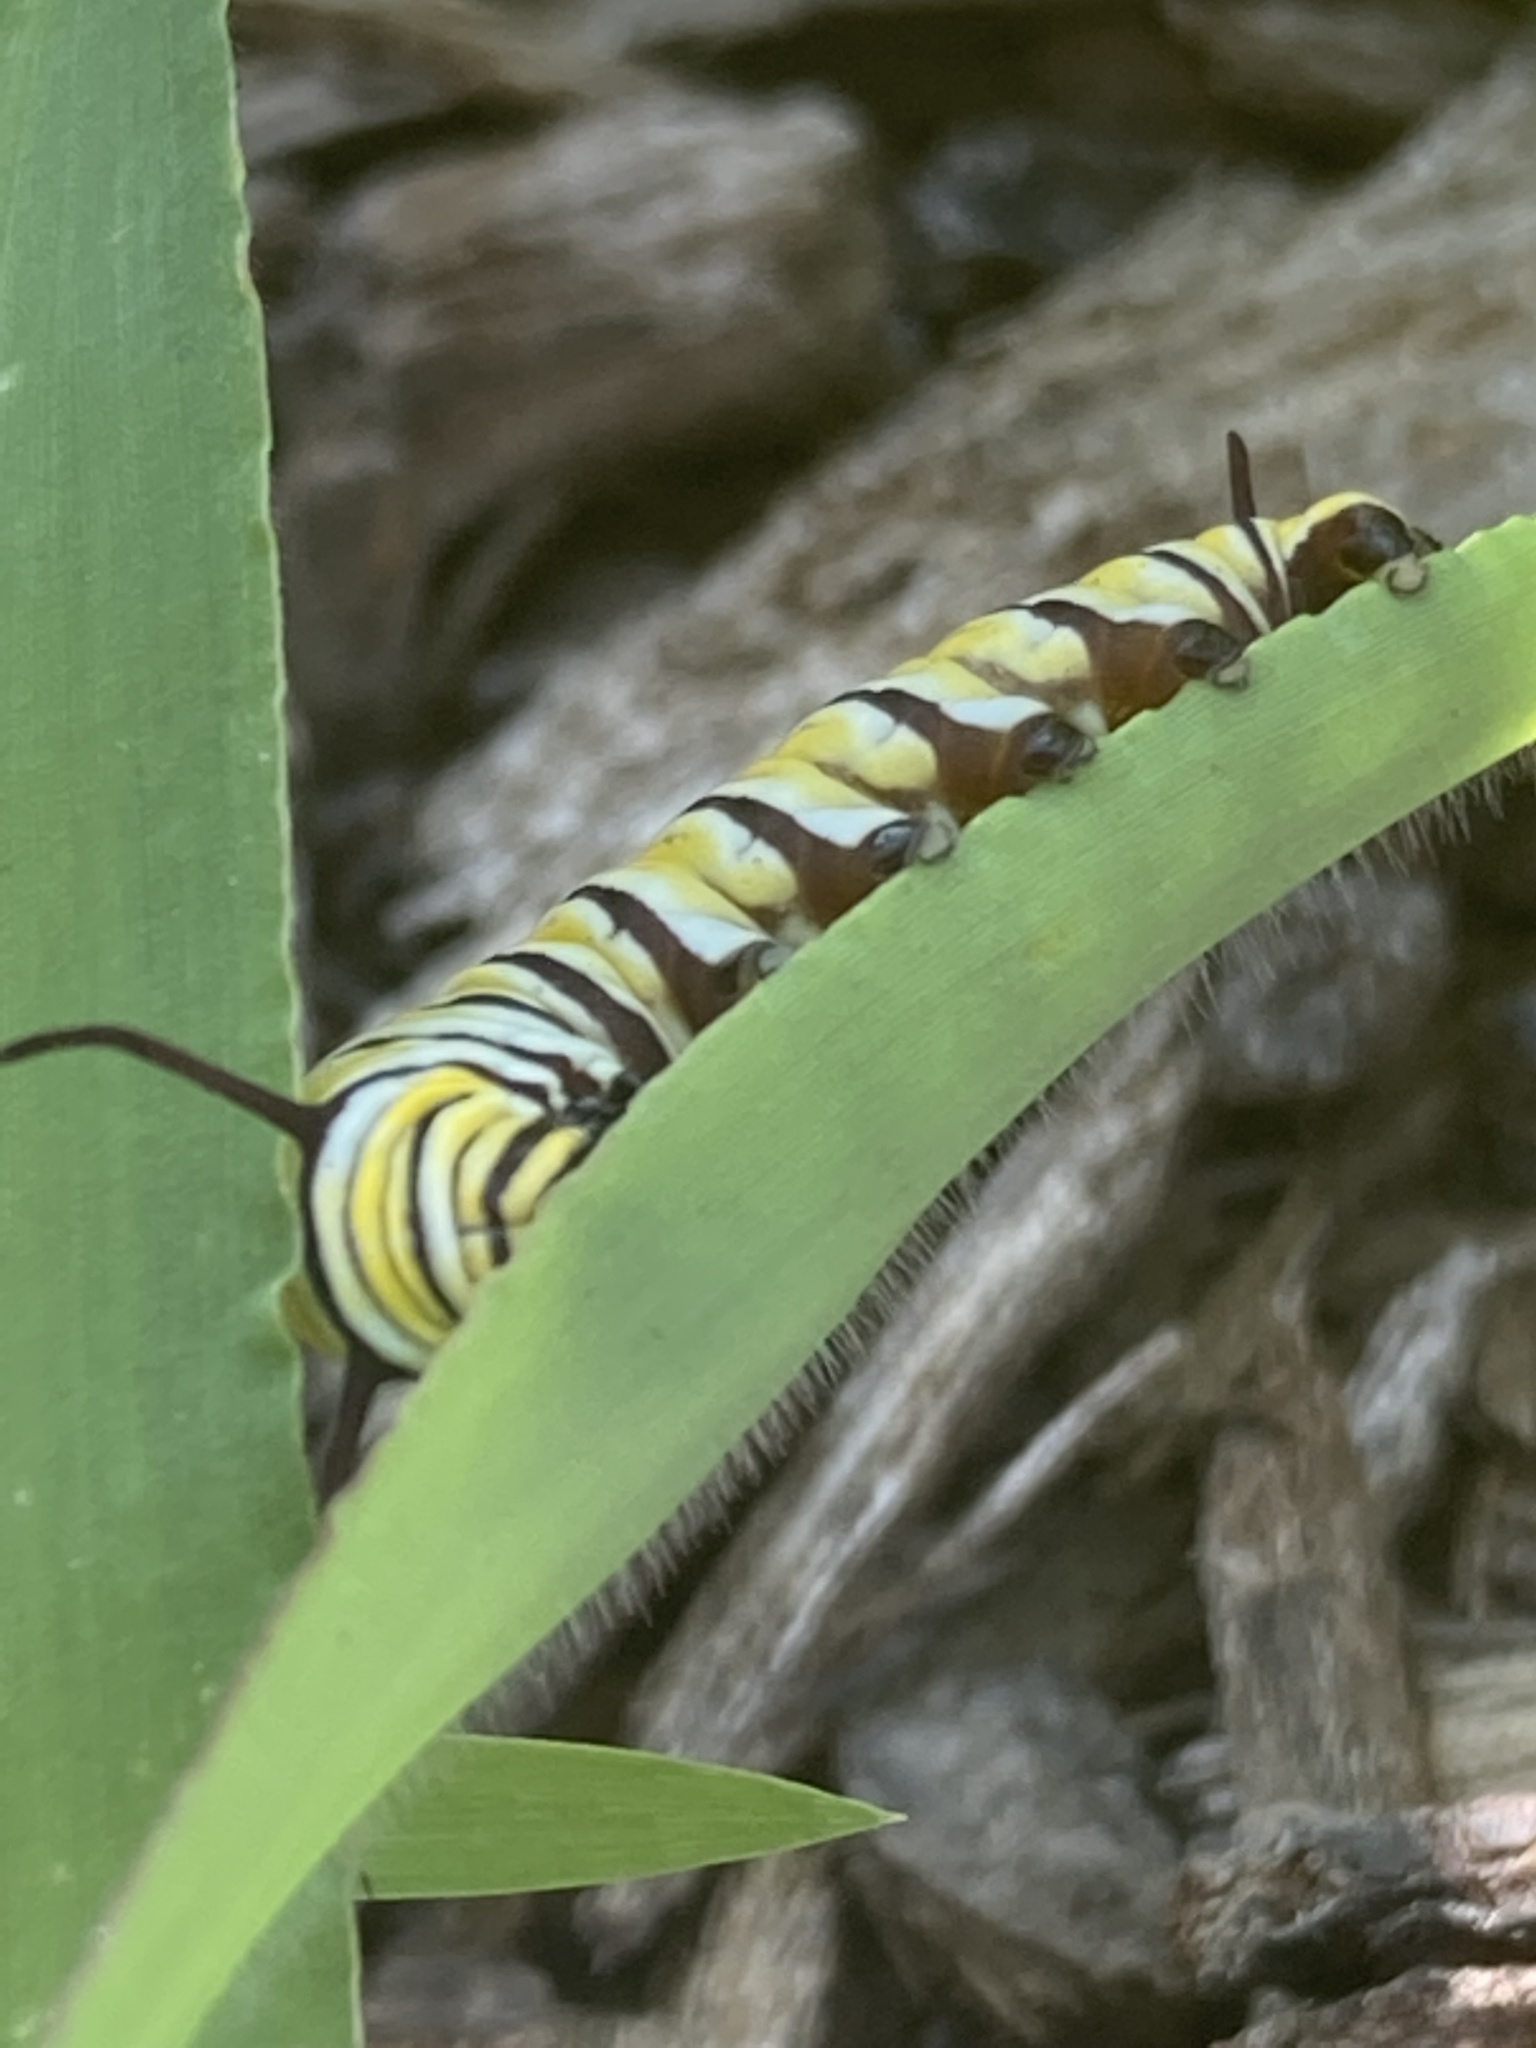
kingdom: Animalia
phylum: Arthropoda
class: Insecta
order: Lepidoptera
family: Nymphalidae
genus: Danaus
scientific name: Danaus plexippus
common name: Monarch
